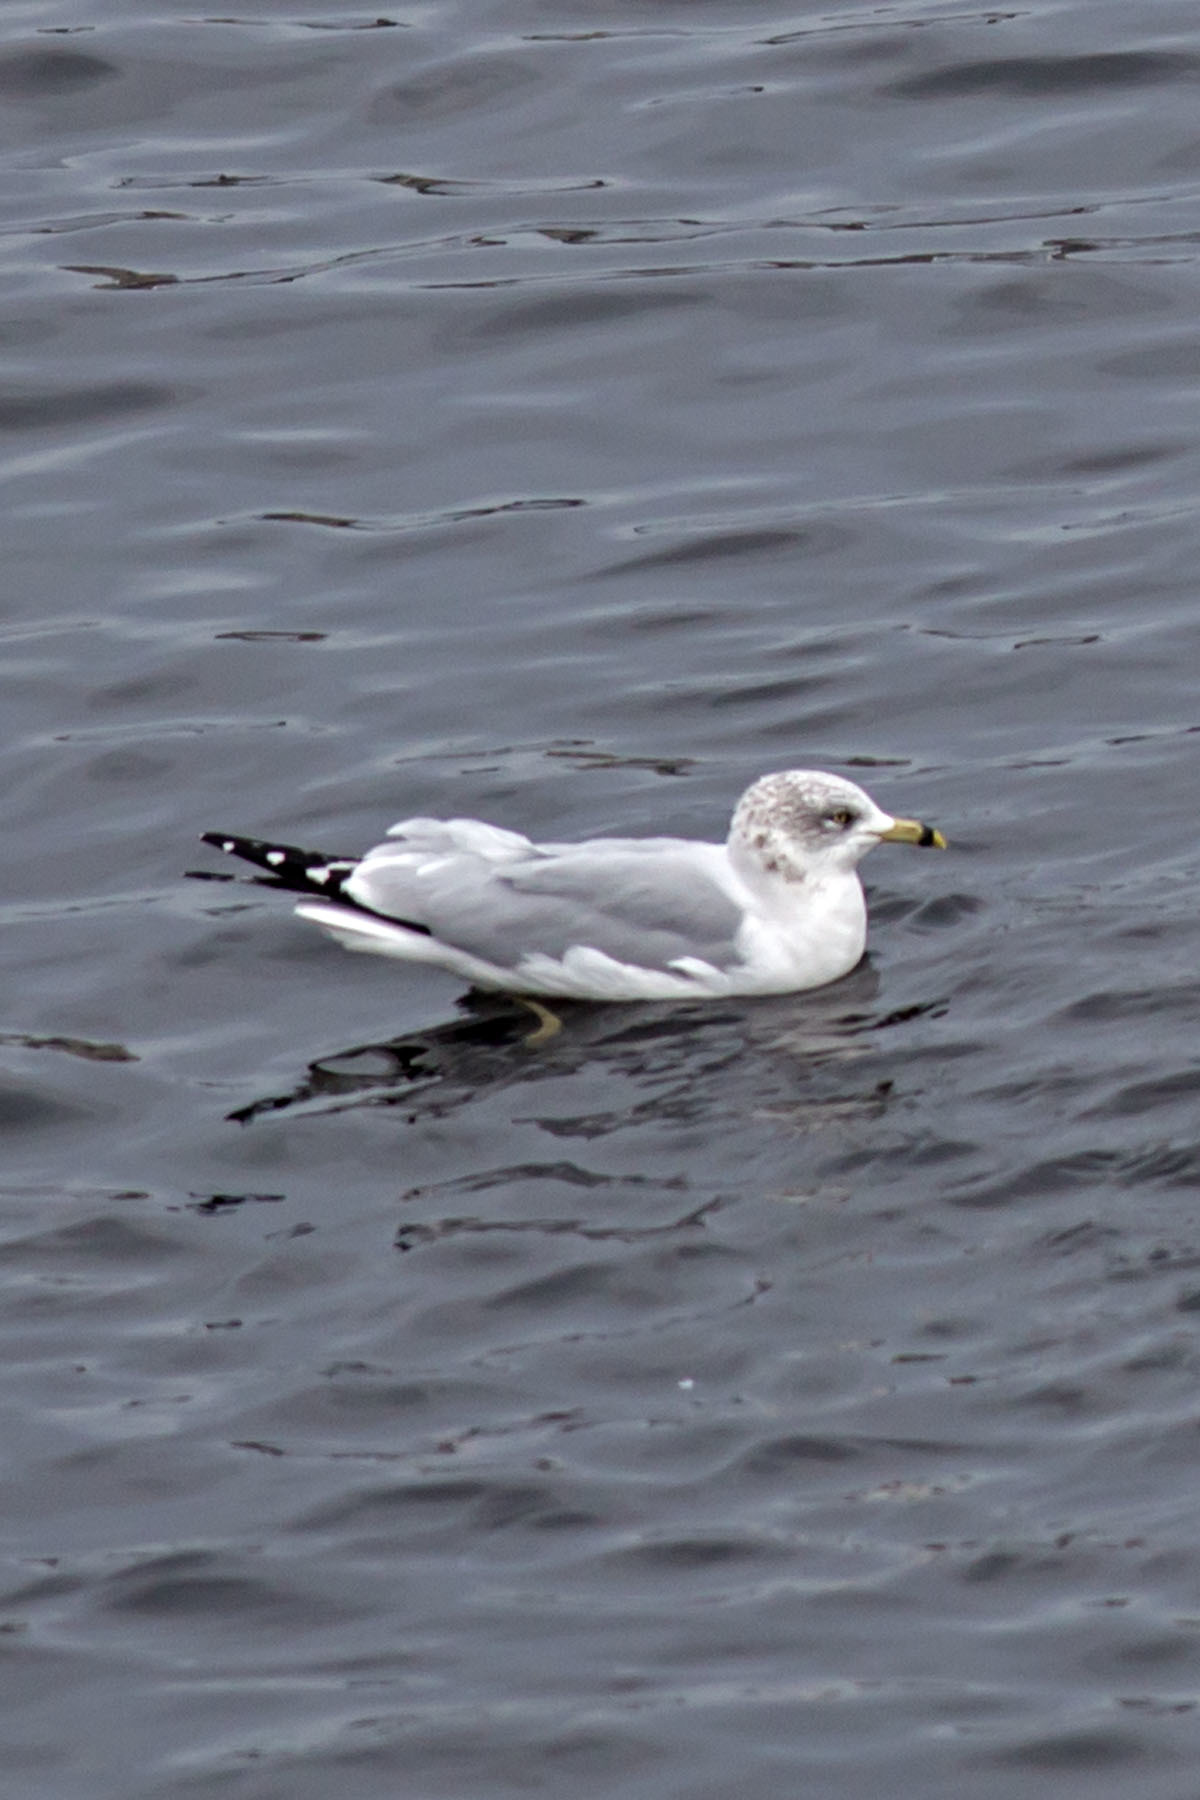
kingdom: Animalia
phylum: Chordata
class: Aves
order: Charadriiformes
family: Laridae
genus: Larus
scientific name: Larus delawarensis
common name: Ring-billed gull
